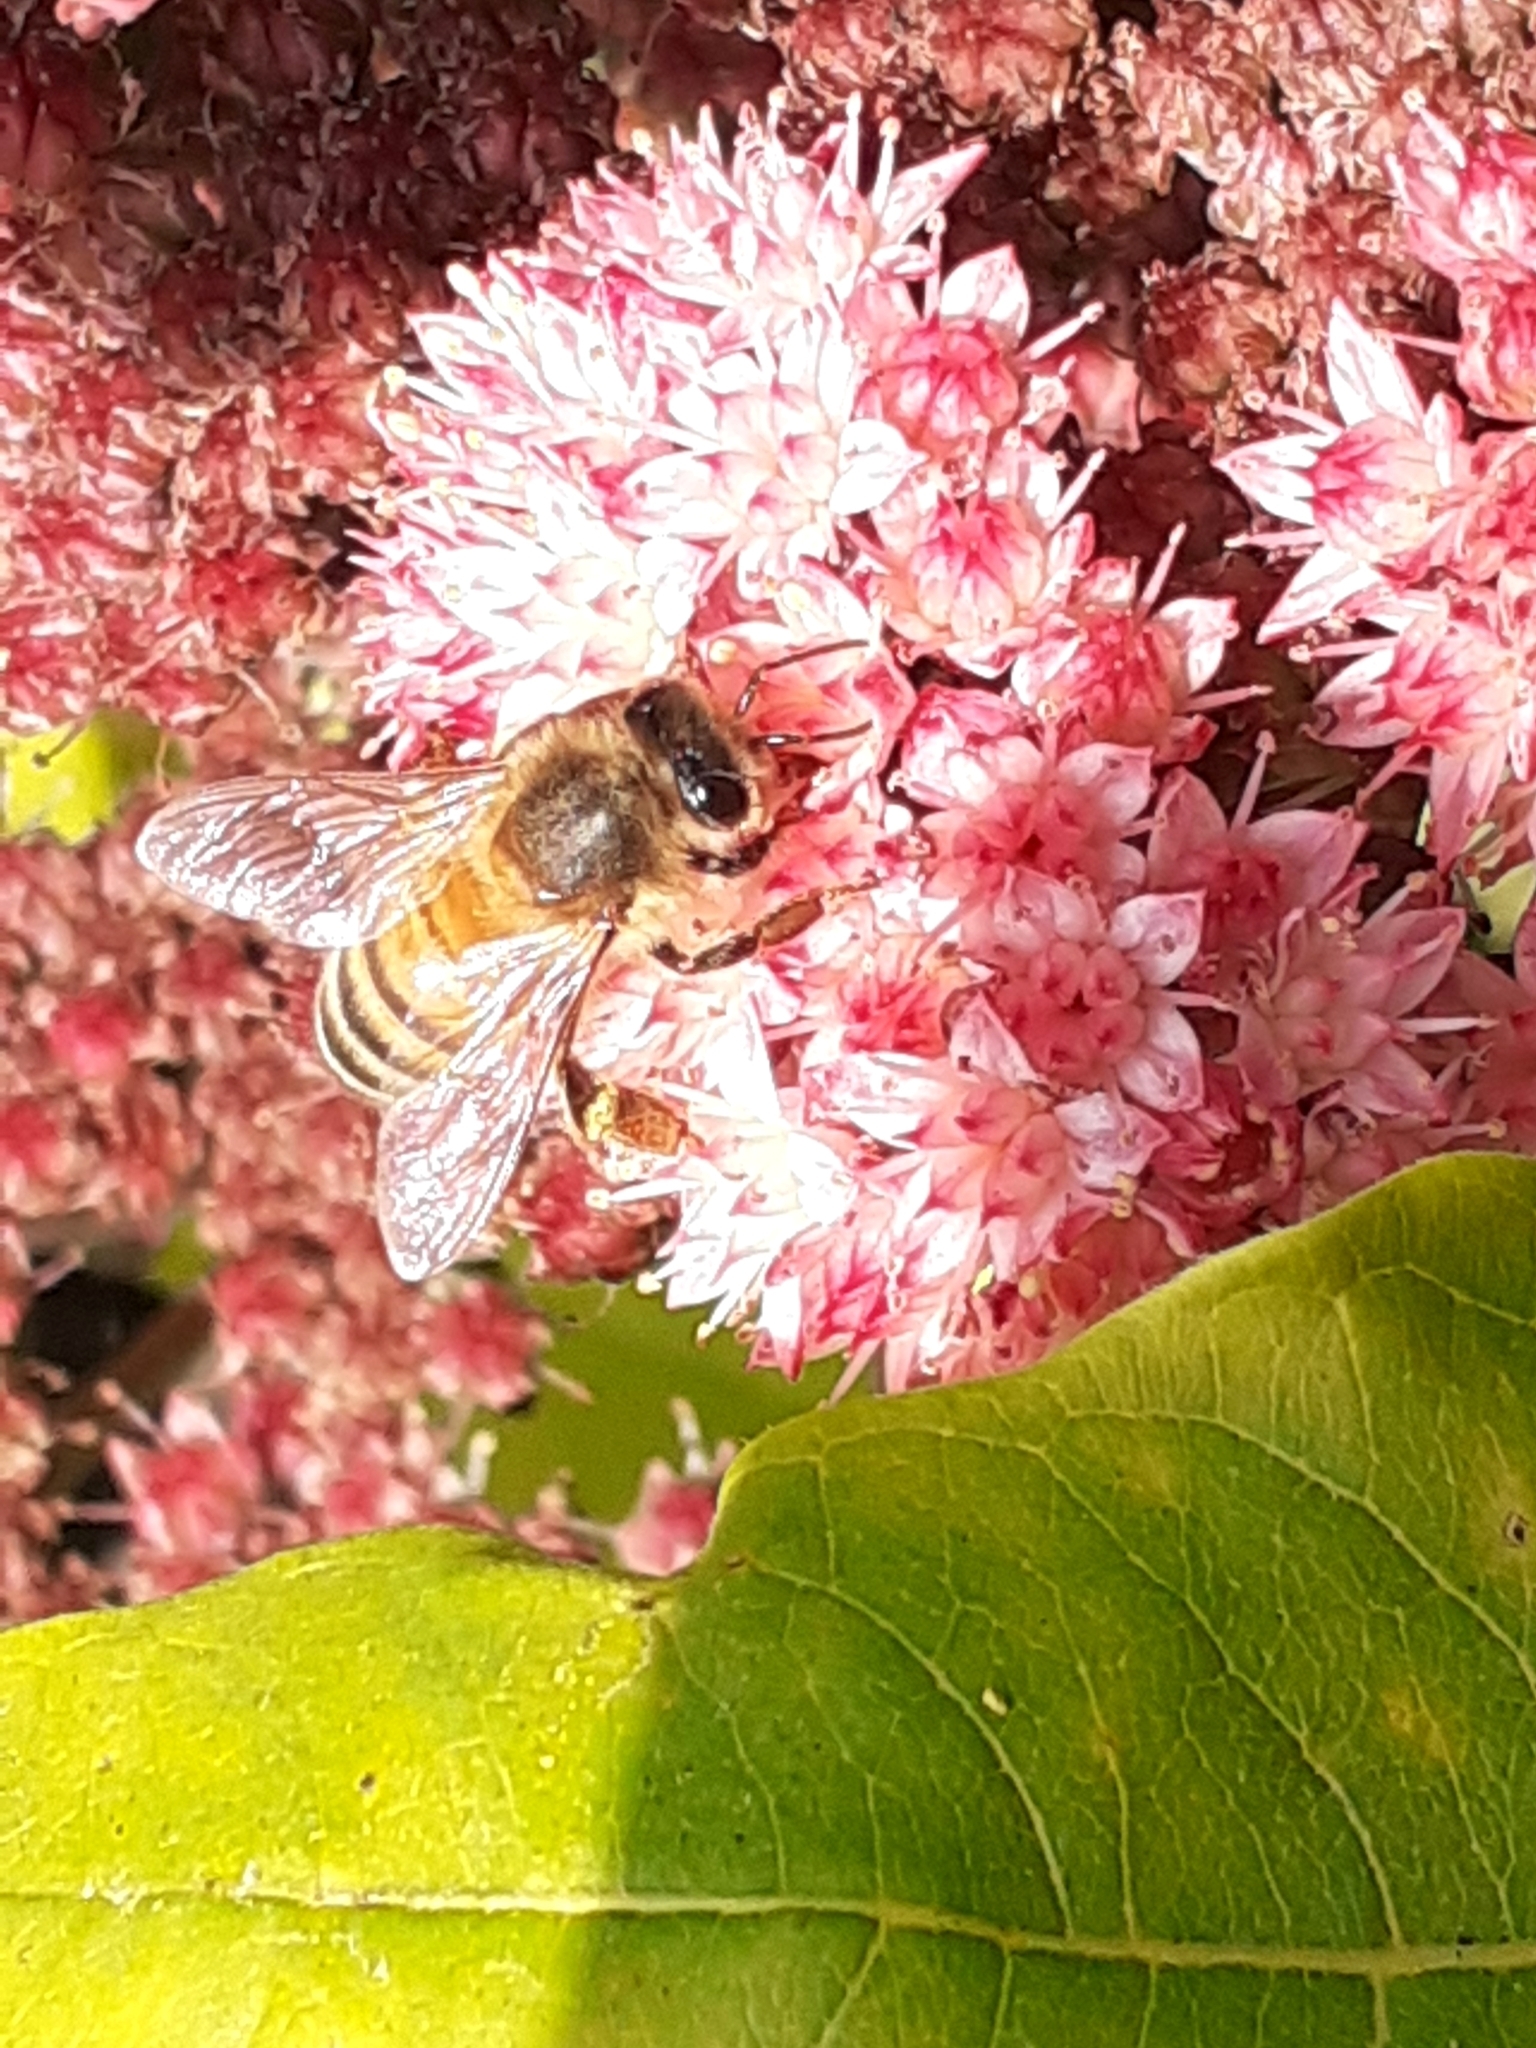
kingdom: Animalia
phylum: Arthropoda
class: Insecta
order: Hymenoptera
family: Apidae
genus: Apis
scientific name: Apis mellifera
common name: Honey bee
